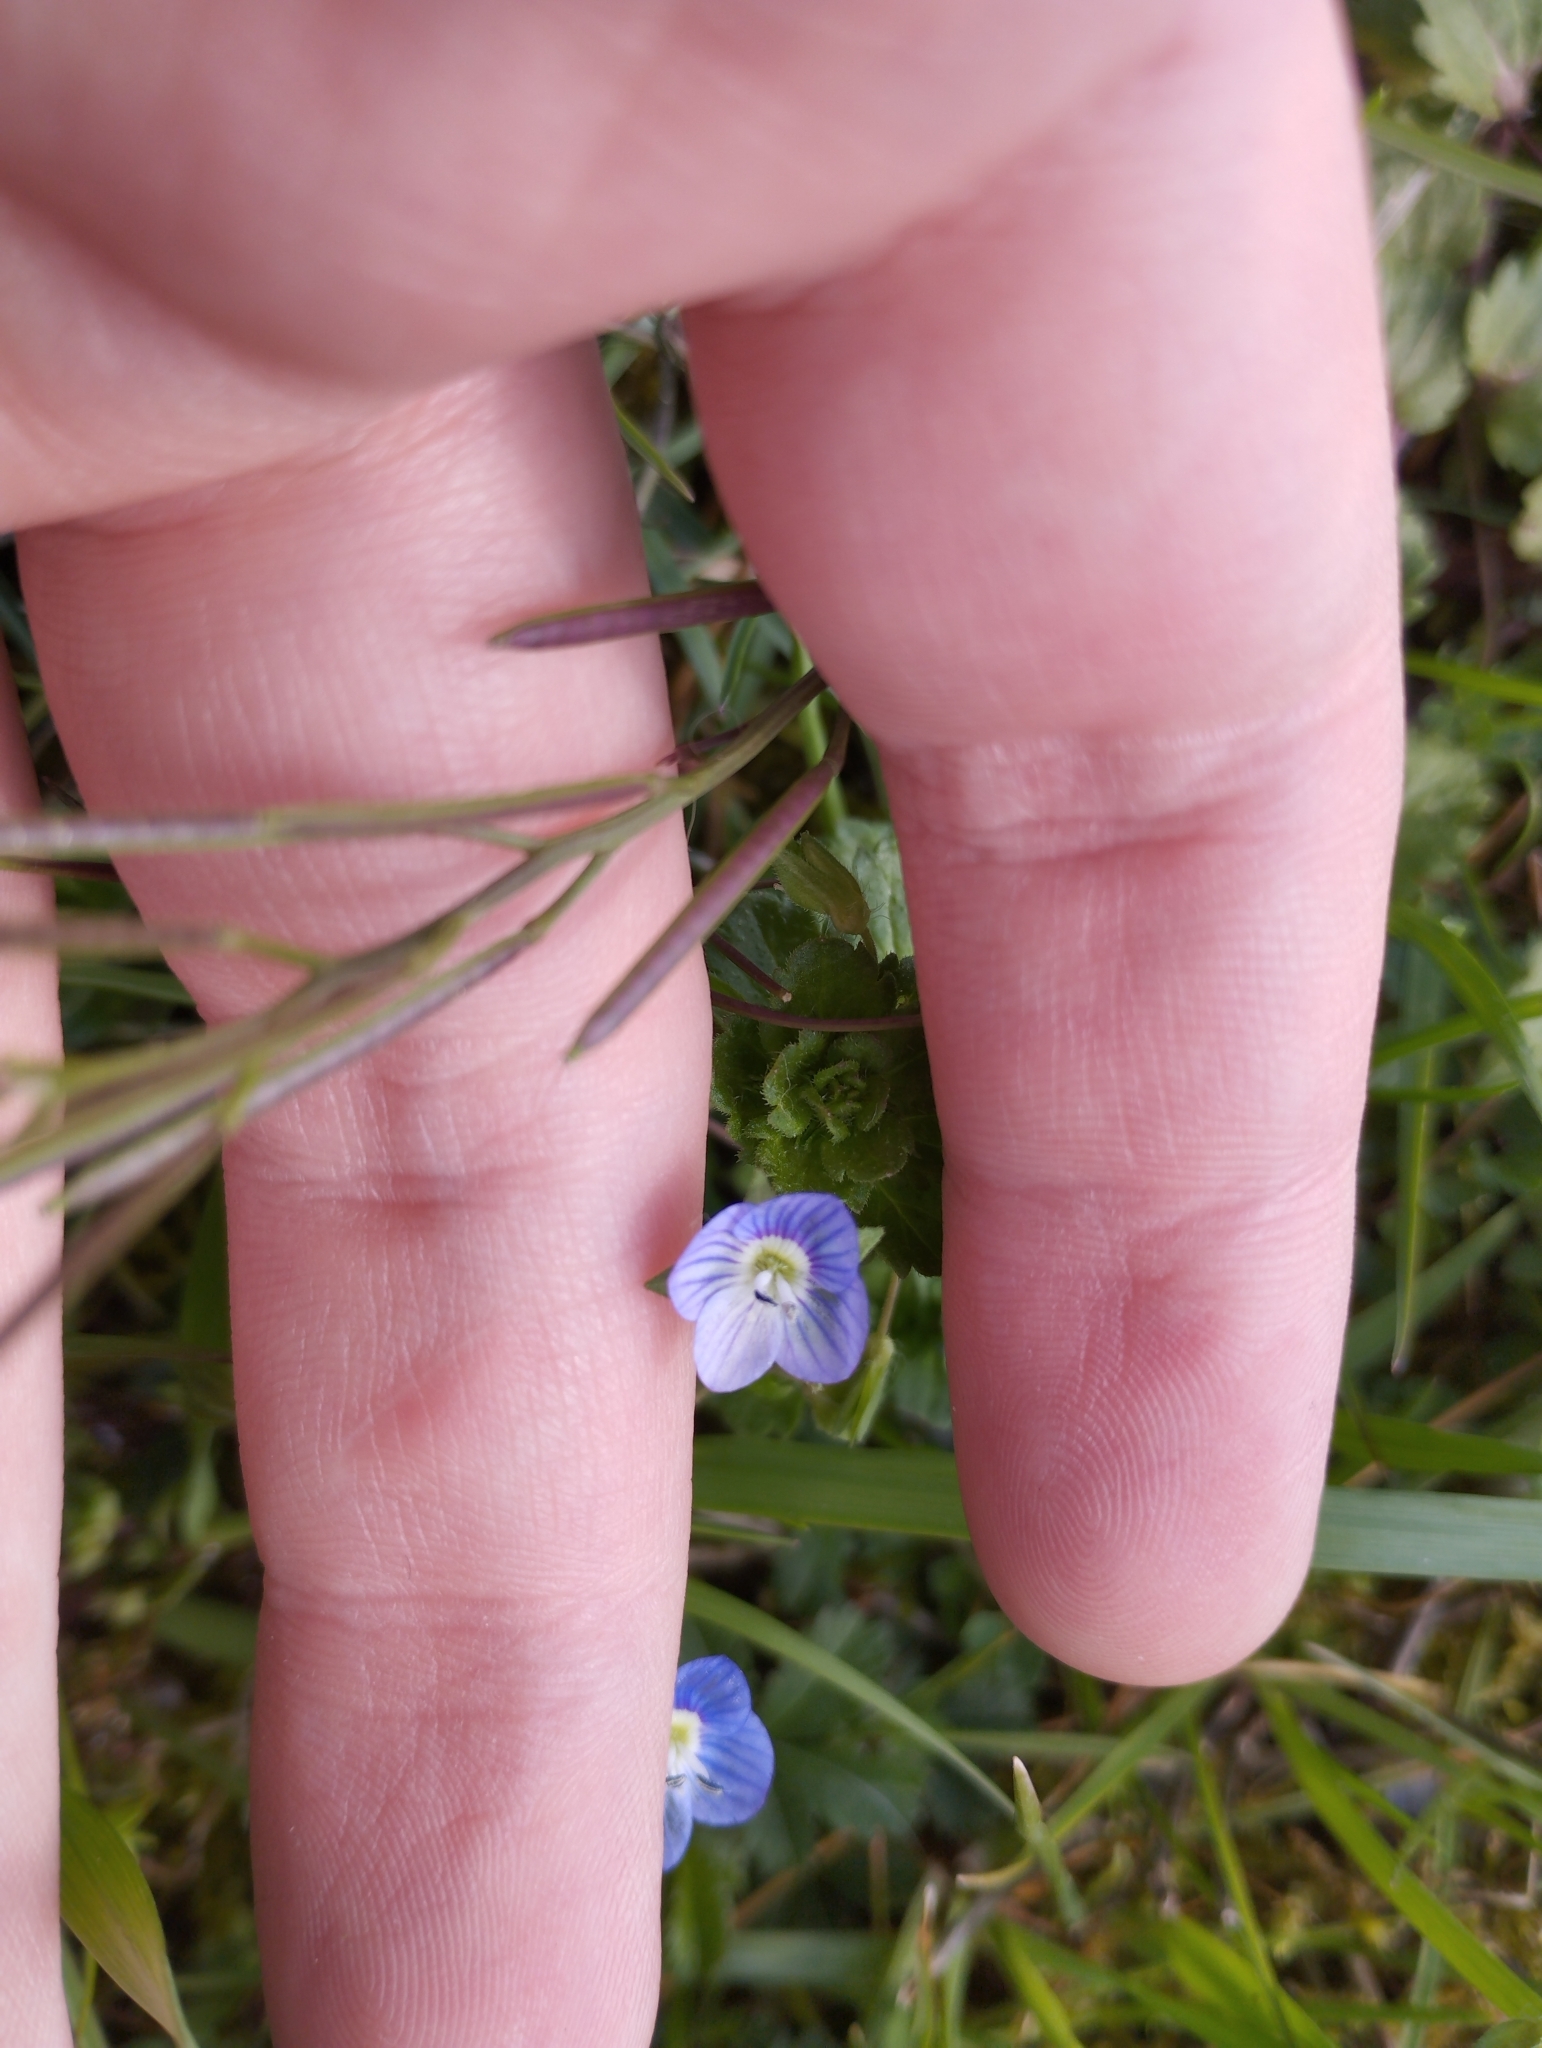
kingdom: Plantae
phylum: Tracheophyta
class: Magnoliopsida
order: Lamiales
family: Plantaginaceae
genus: Veronica
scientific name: Veronica persica
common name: Common field-speedwell
